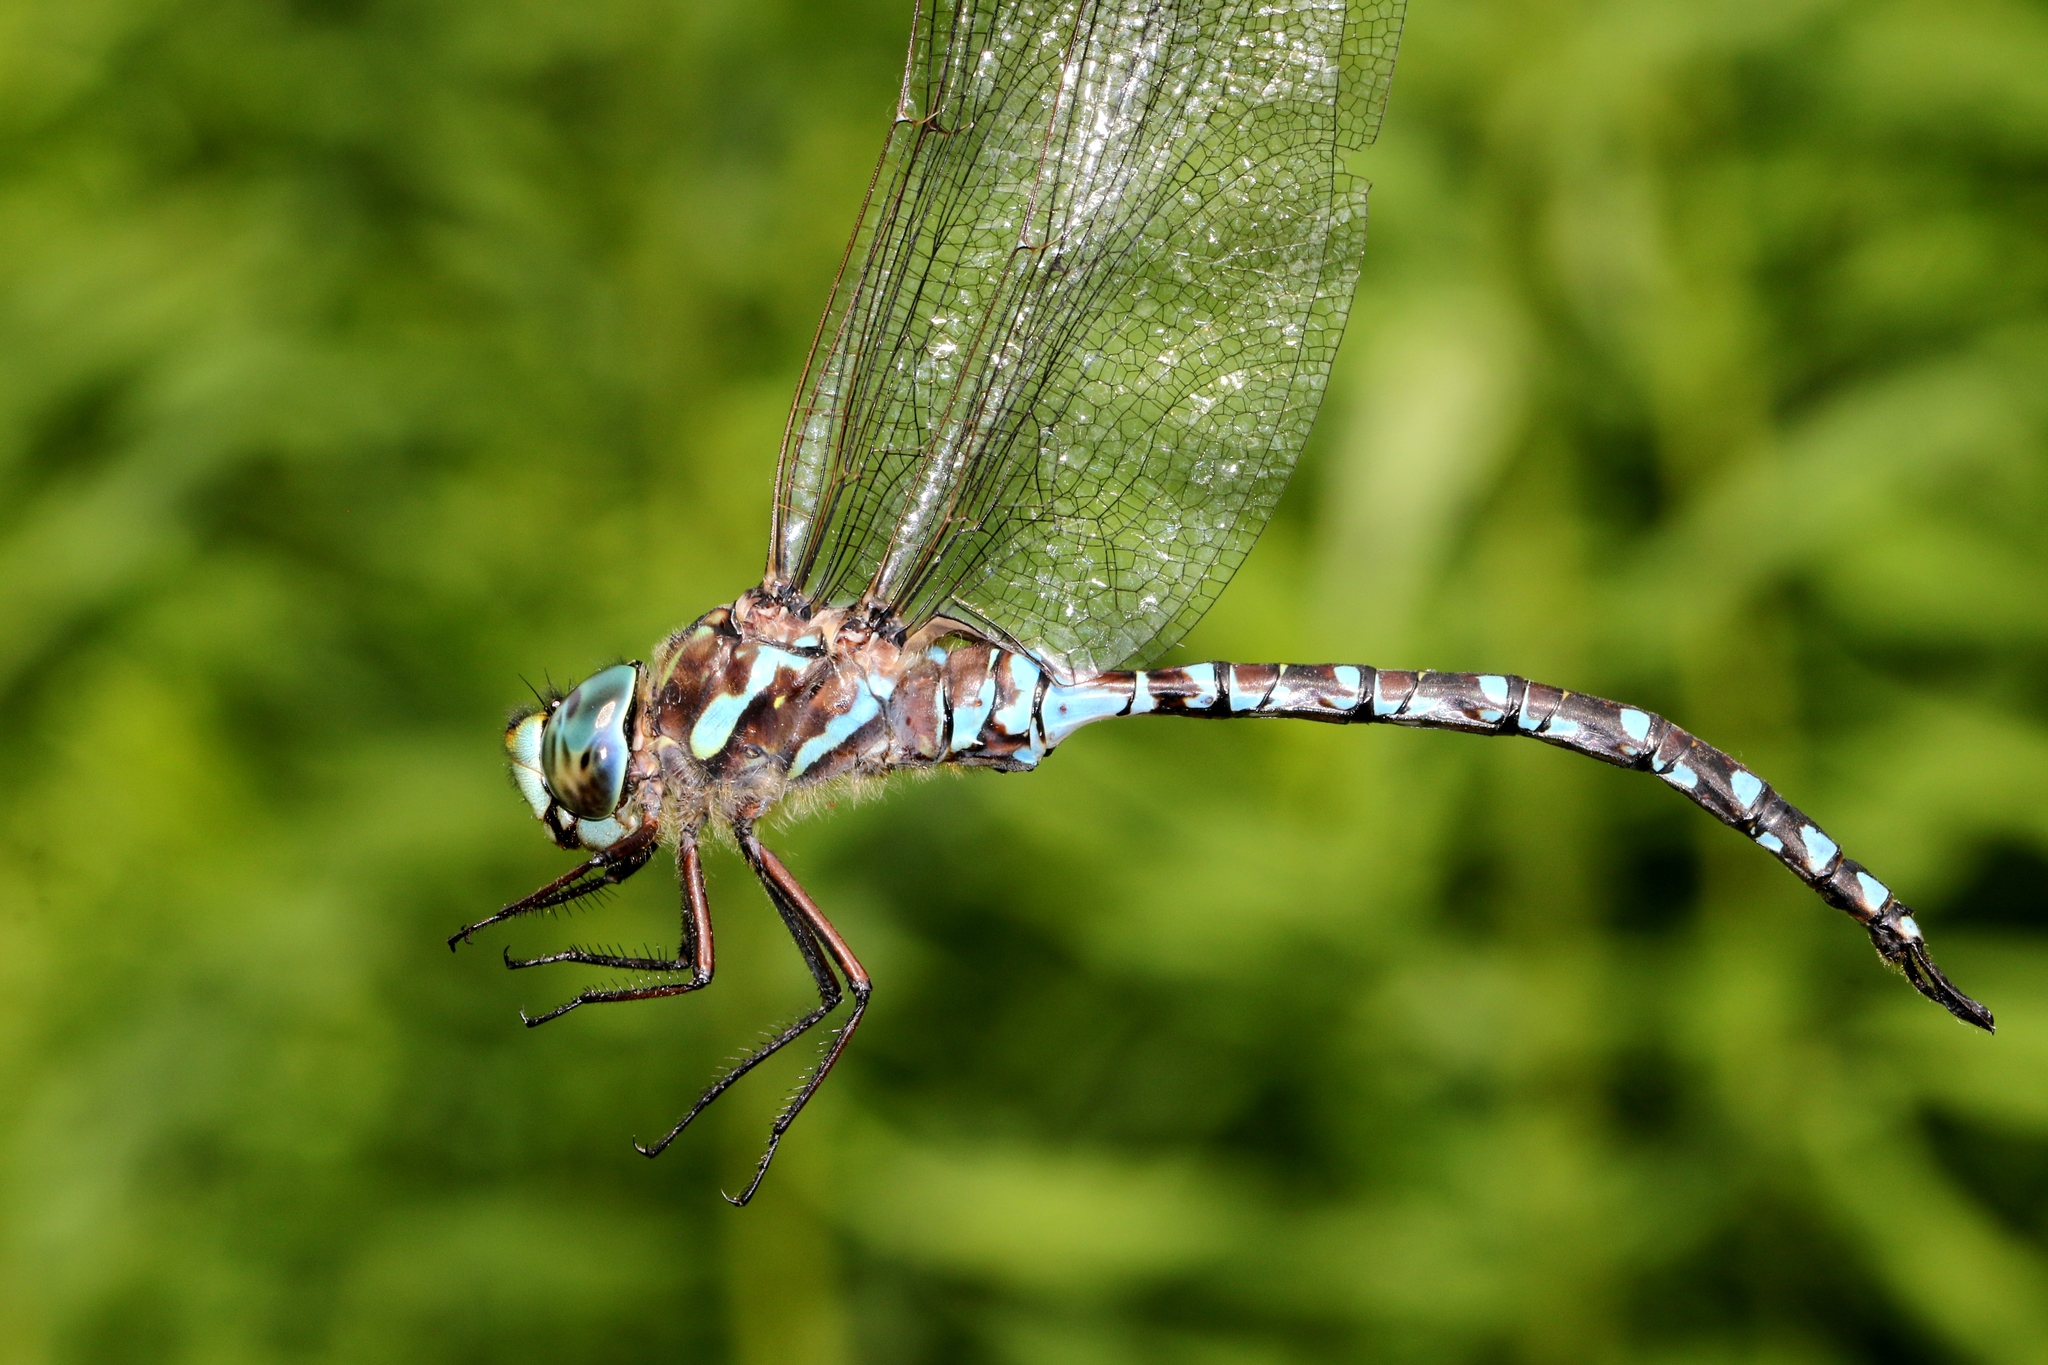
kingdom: Animalia
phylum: Arthropoda
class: Insecta
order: Odonata
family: Aeshnidae
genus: Aeshna
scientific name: Aeshna canadensis
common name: Canada darner
